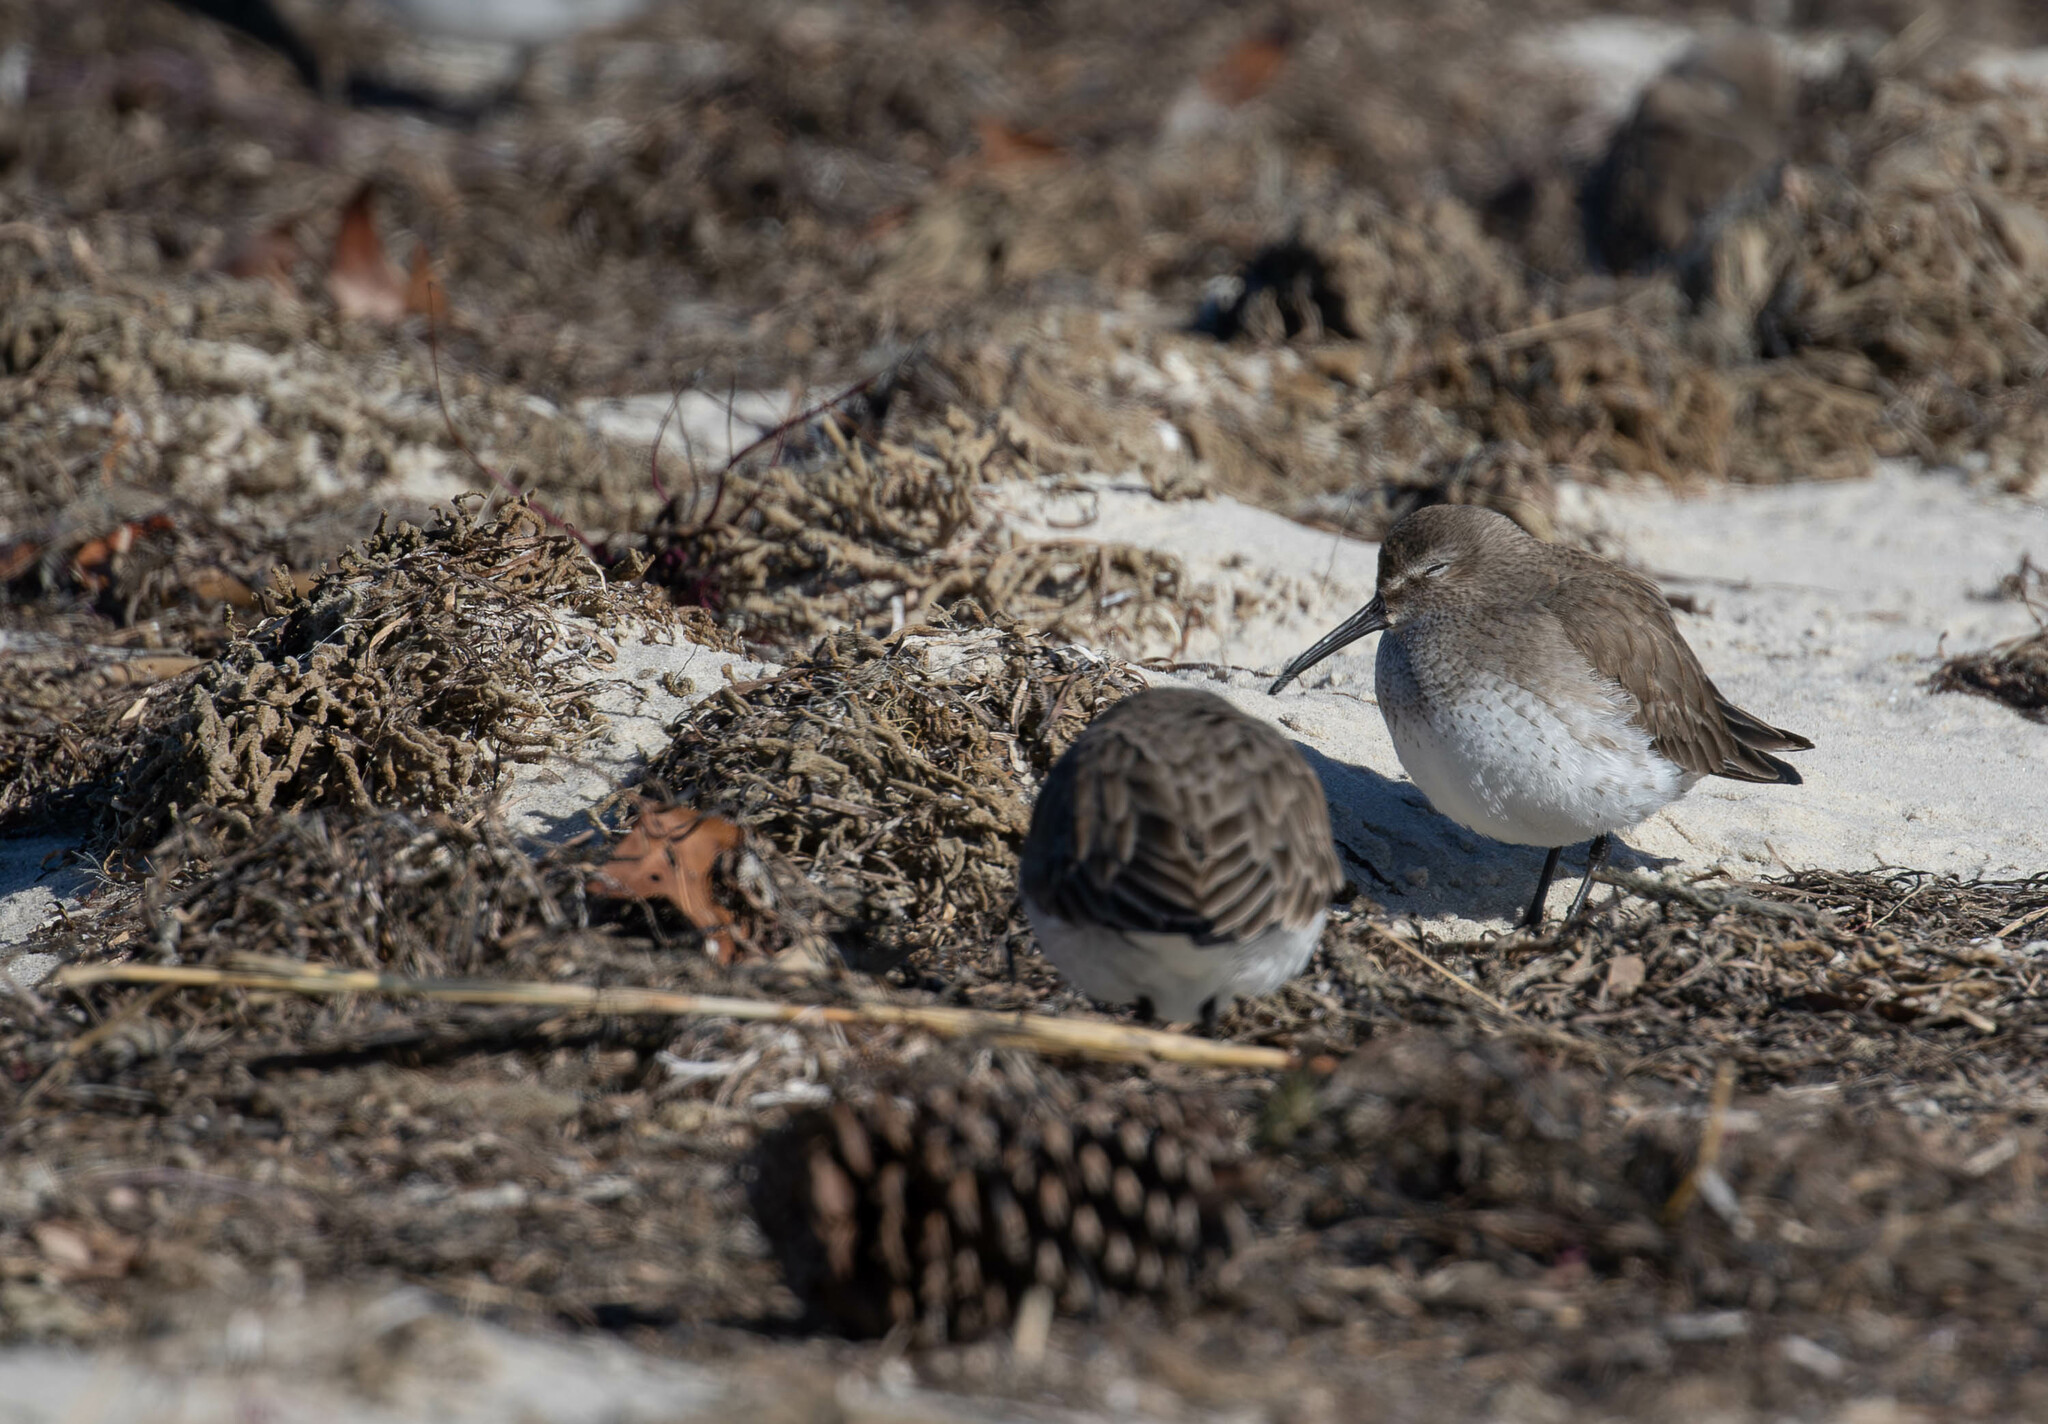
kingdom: Animalia
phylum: Chordata
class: Aves
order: Charadriiformes
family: Scolopacidae
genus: Calidris
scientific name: Calidris alpina
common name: Dunlin
